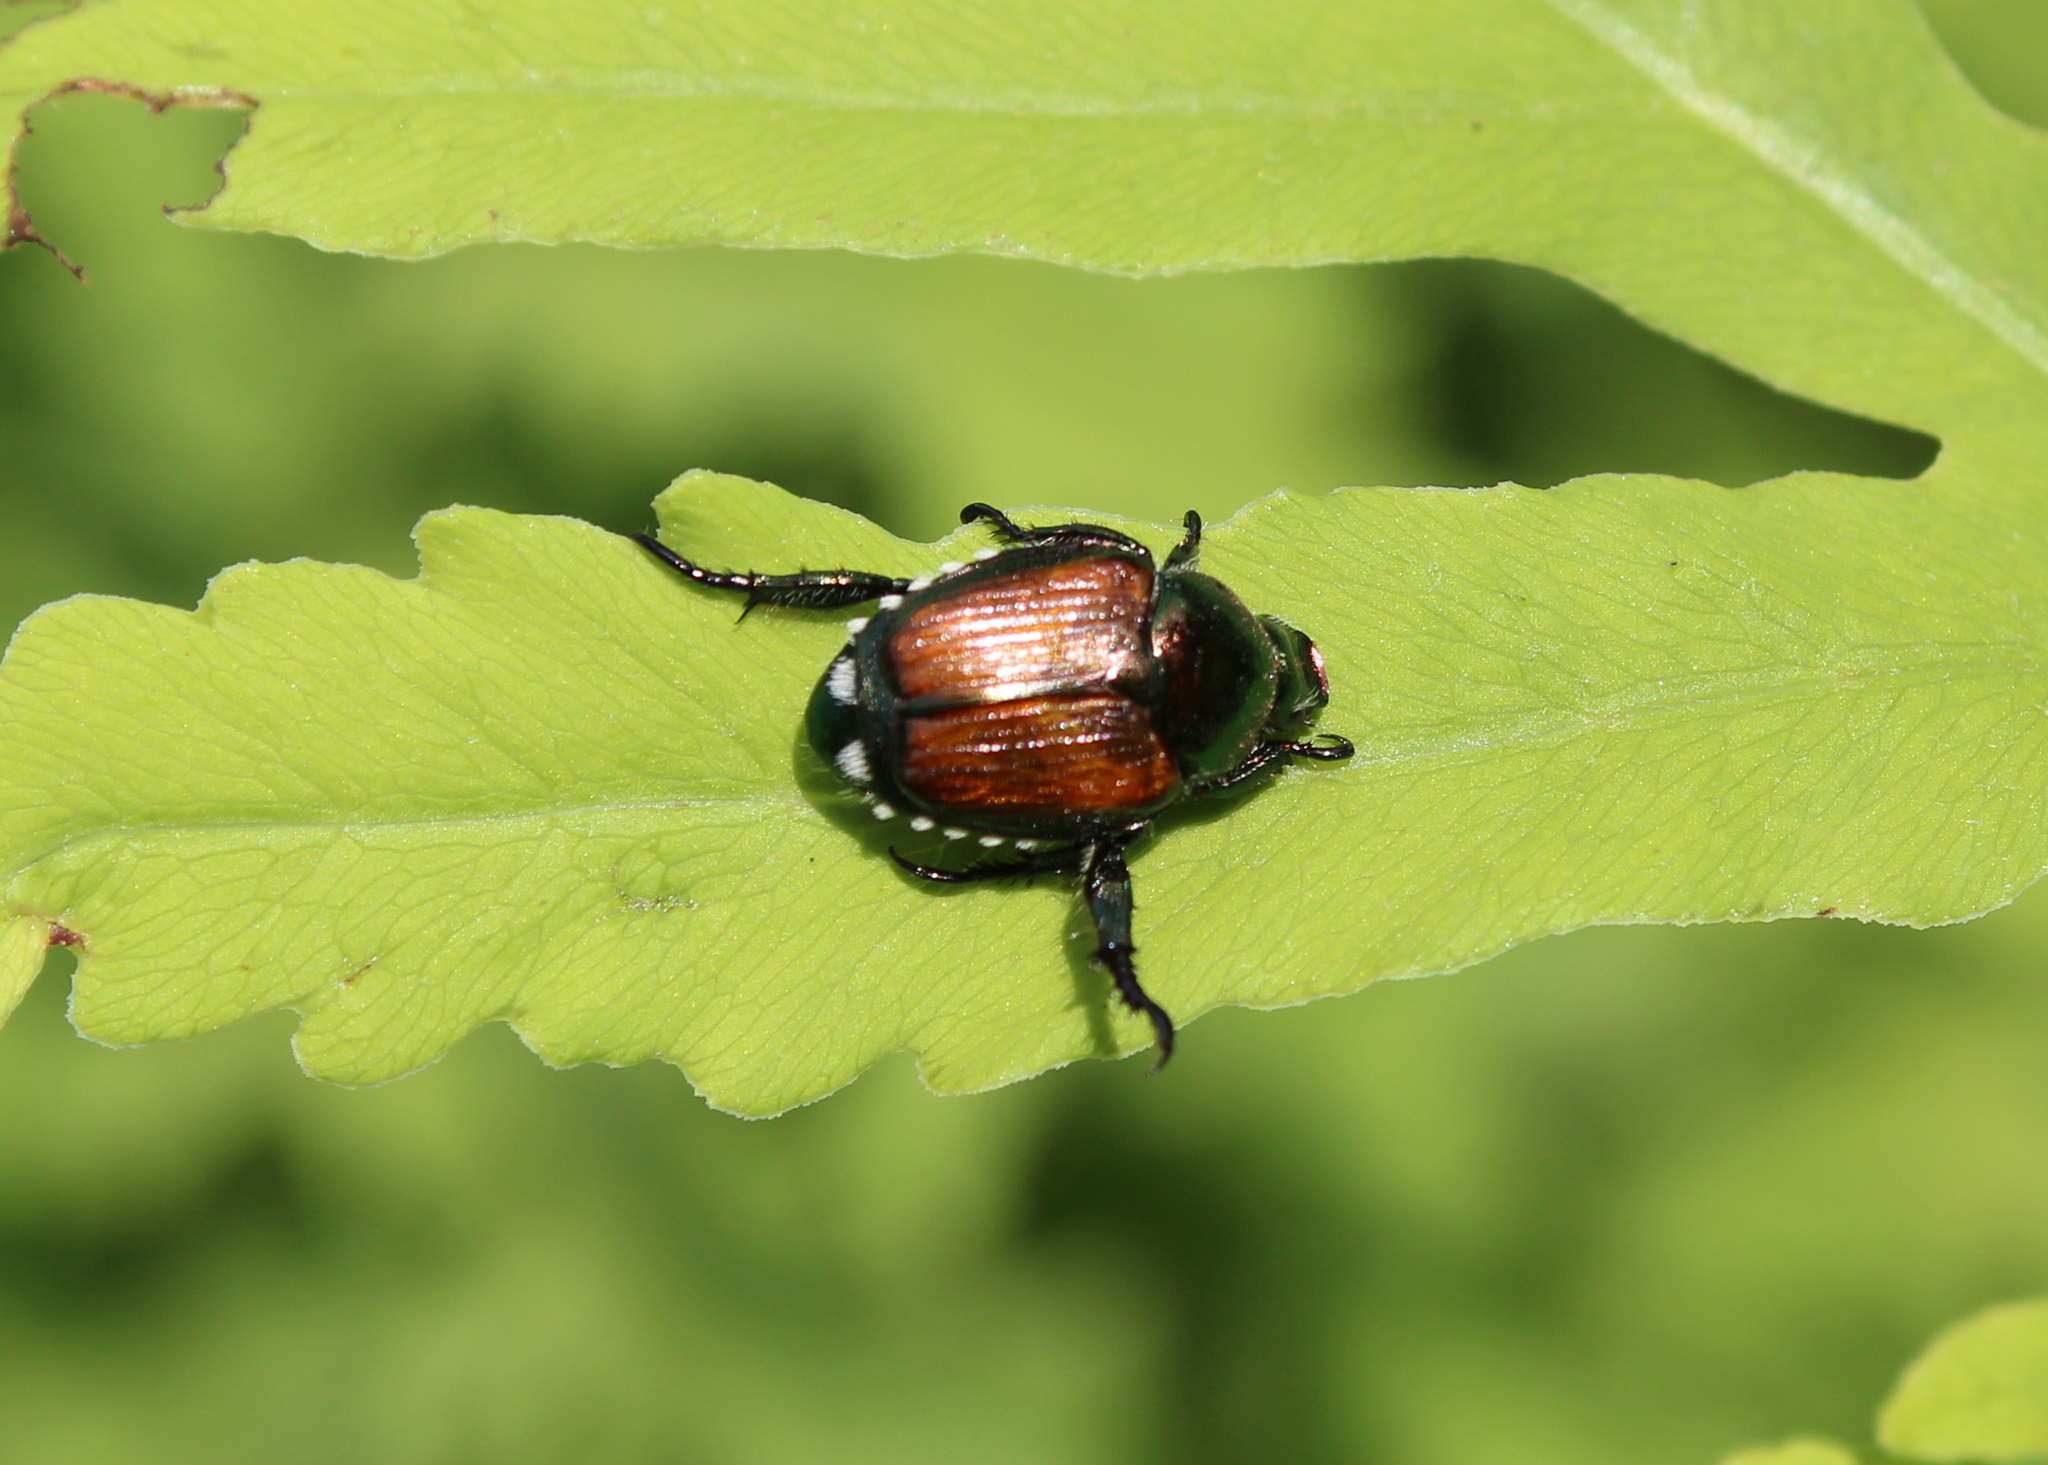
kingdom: Animalia
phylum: Arthropoda
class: Insecta
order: Coleoptera
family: Scarabaeidae
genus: Popillia
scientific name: Popillia japonica
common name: Japanese beetle
